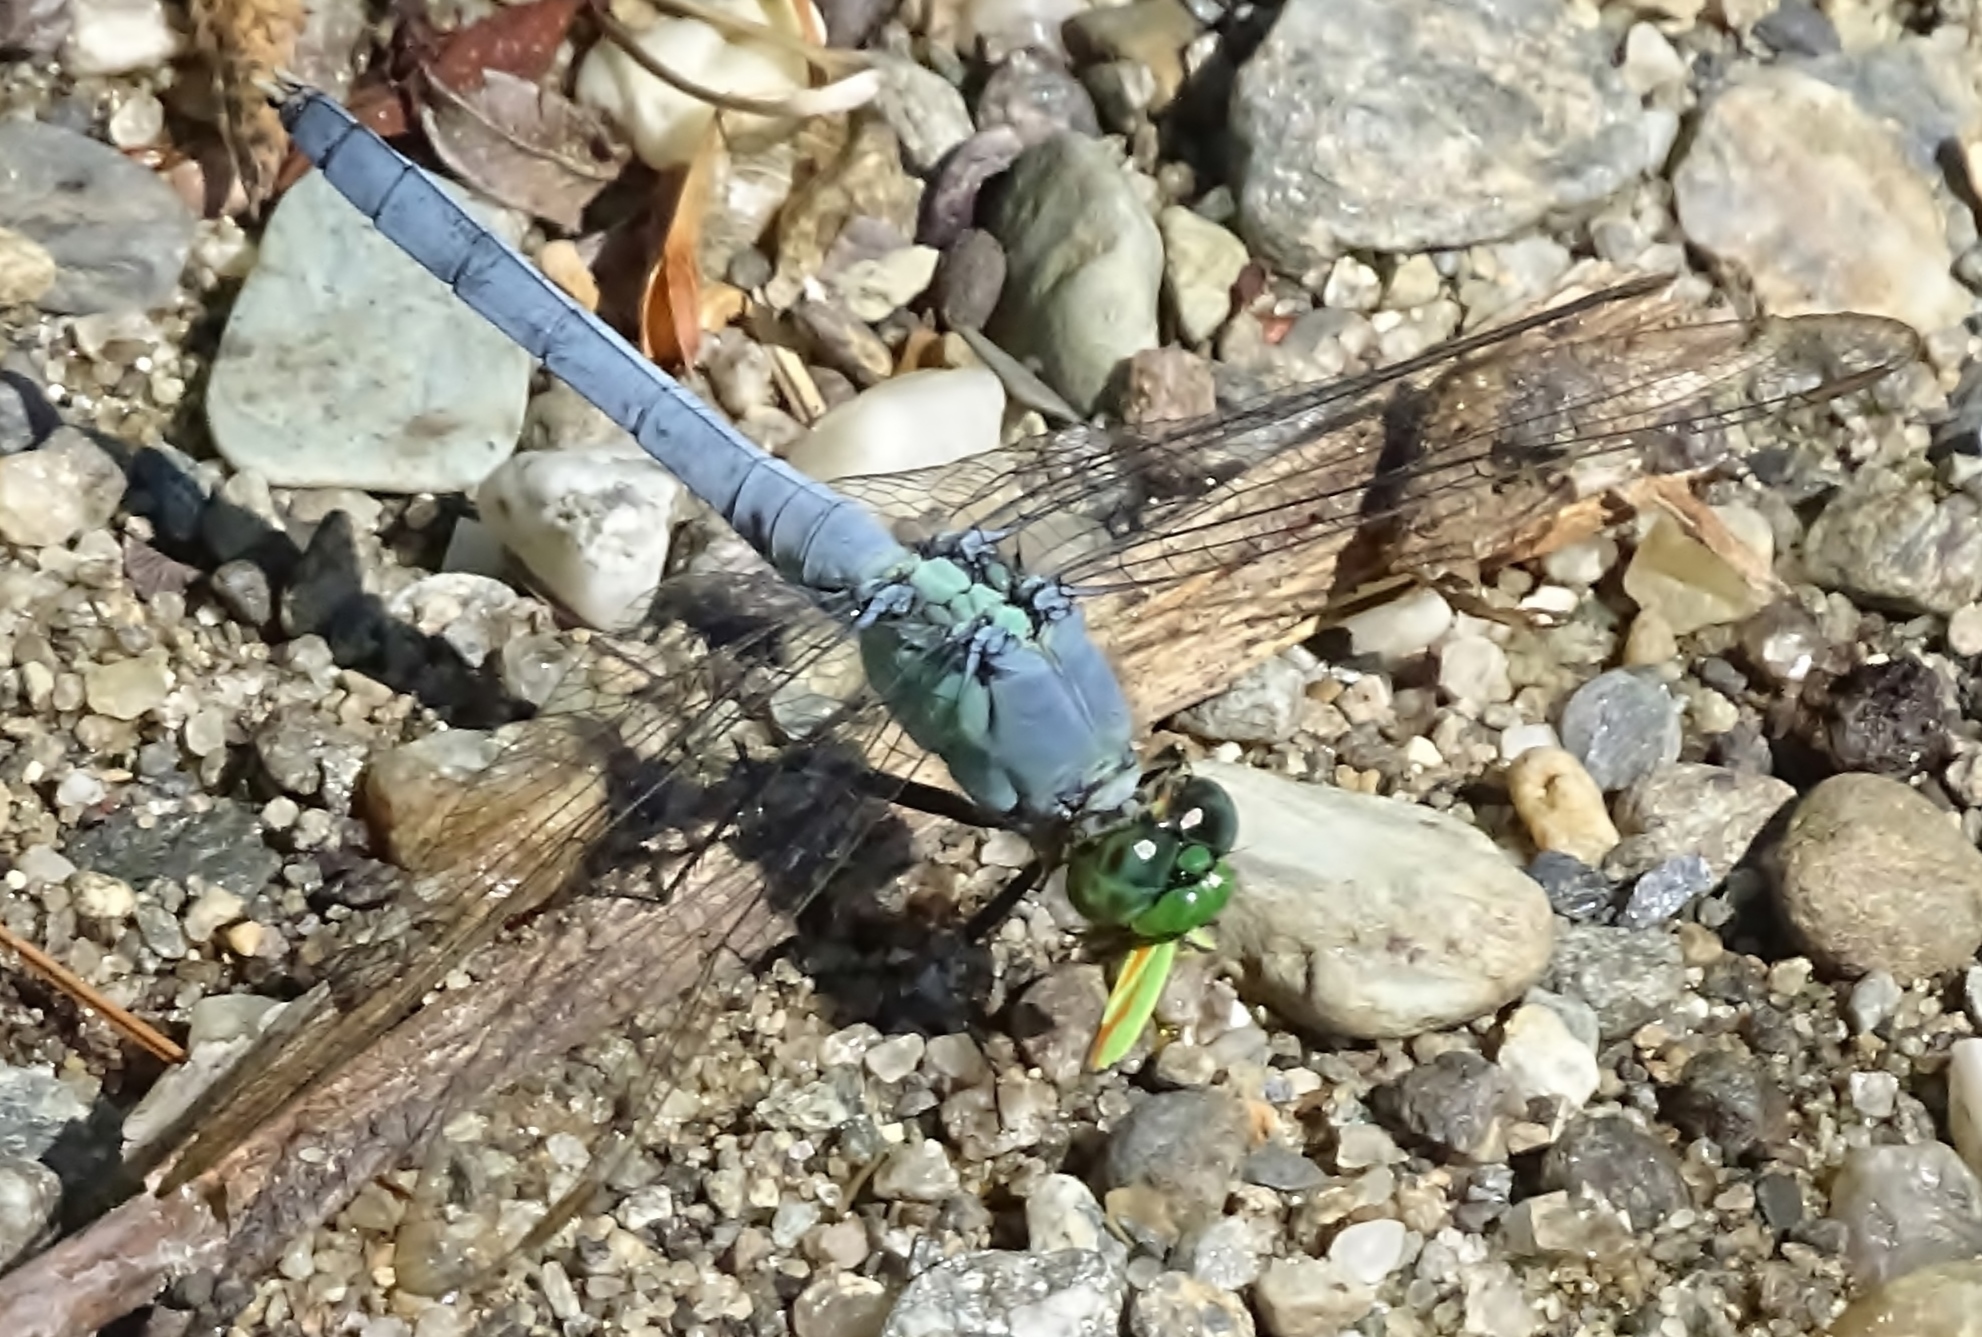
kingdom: Animalia
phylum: Arthropoda
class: Insecta
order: Odonata
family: Libellulidae
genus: Erythemis
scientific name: Erythemis simplicicollis
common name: Eastern pondhawk
